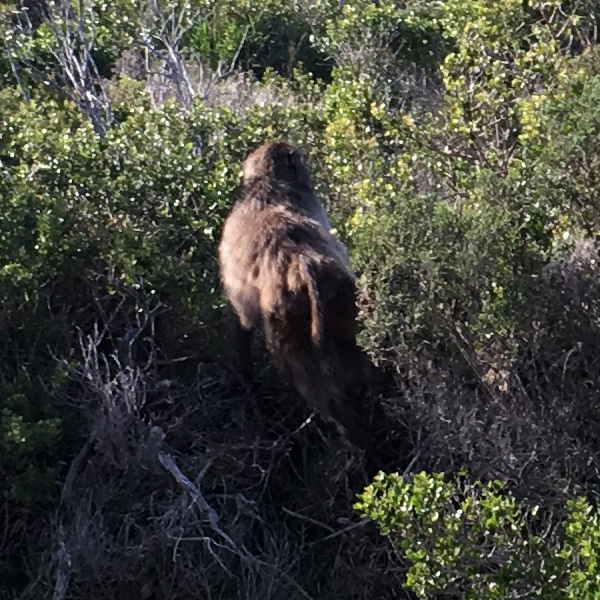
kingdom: Animalia
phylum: Chordata
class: Mammalia
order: Primates
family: Cercopithecidae
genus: Papio
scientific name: Papio ursinus
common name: Chacma baboon
